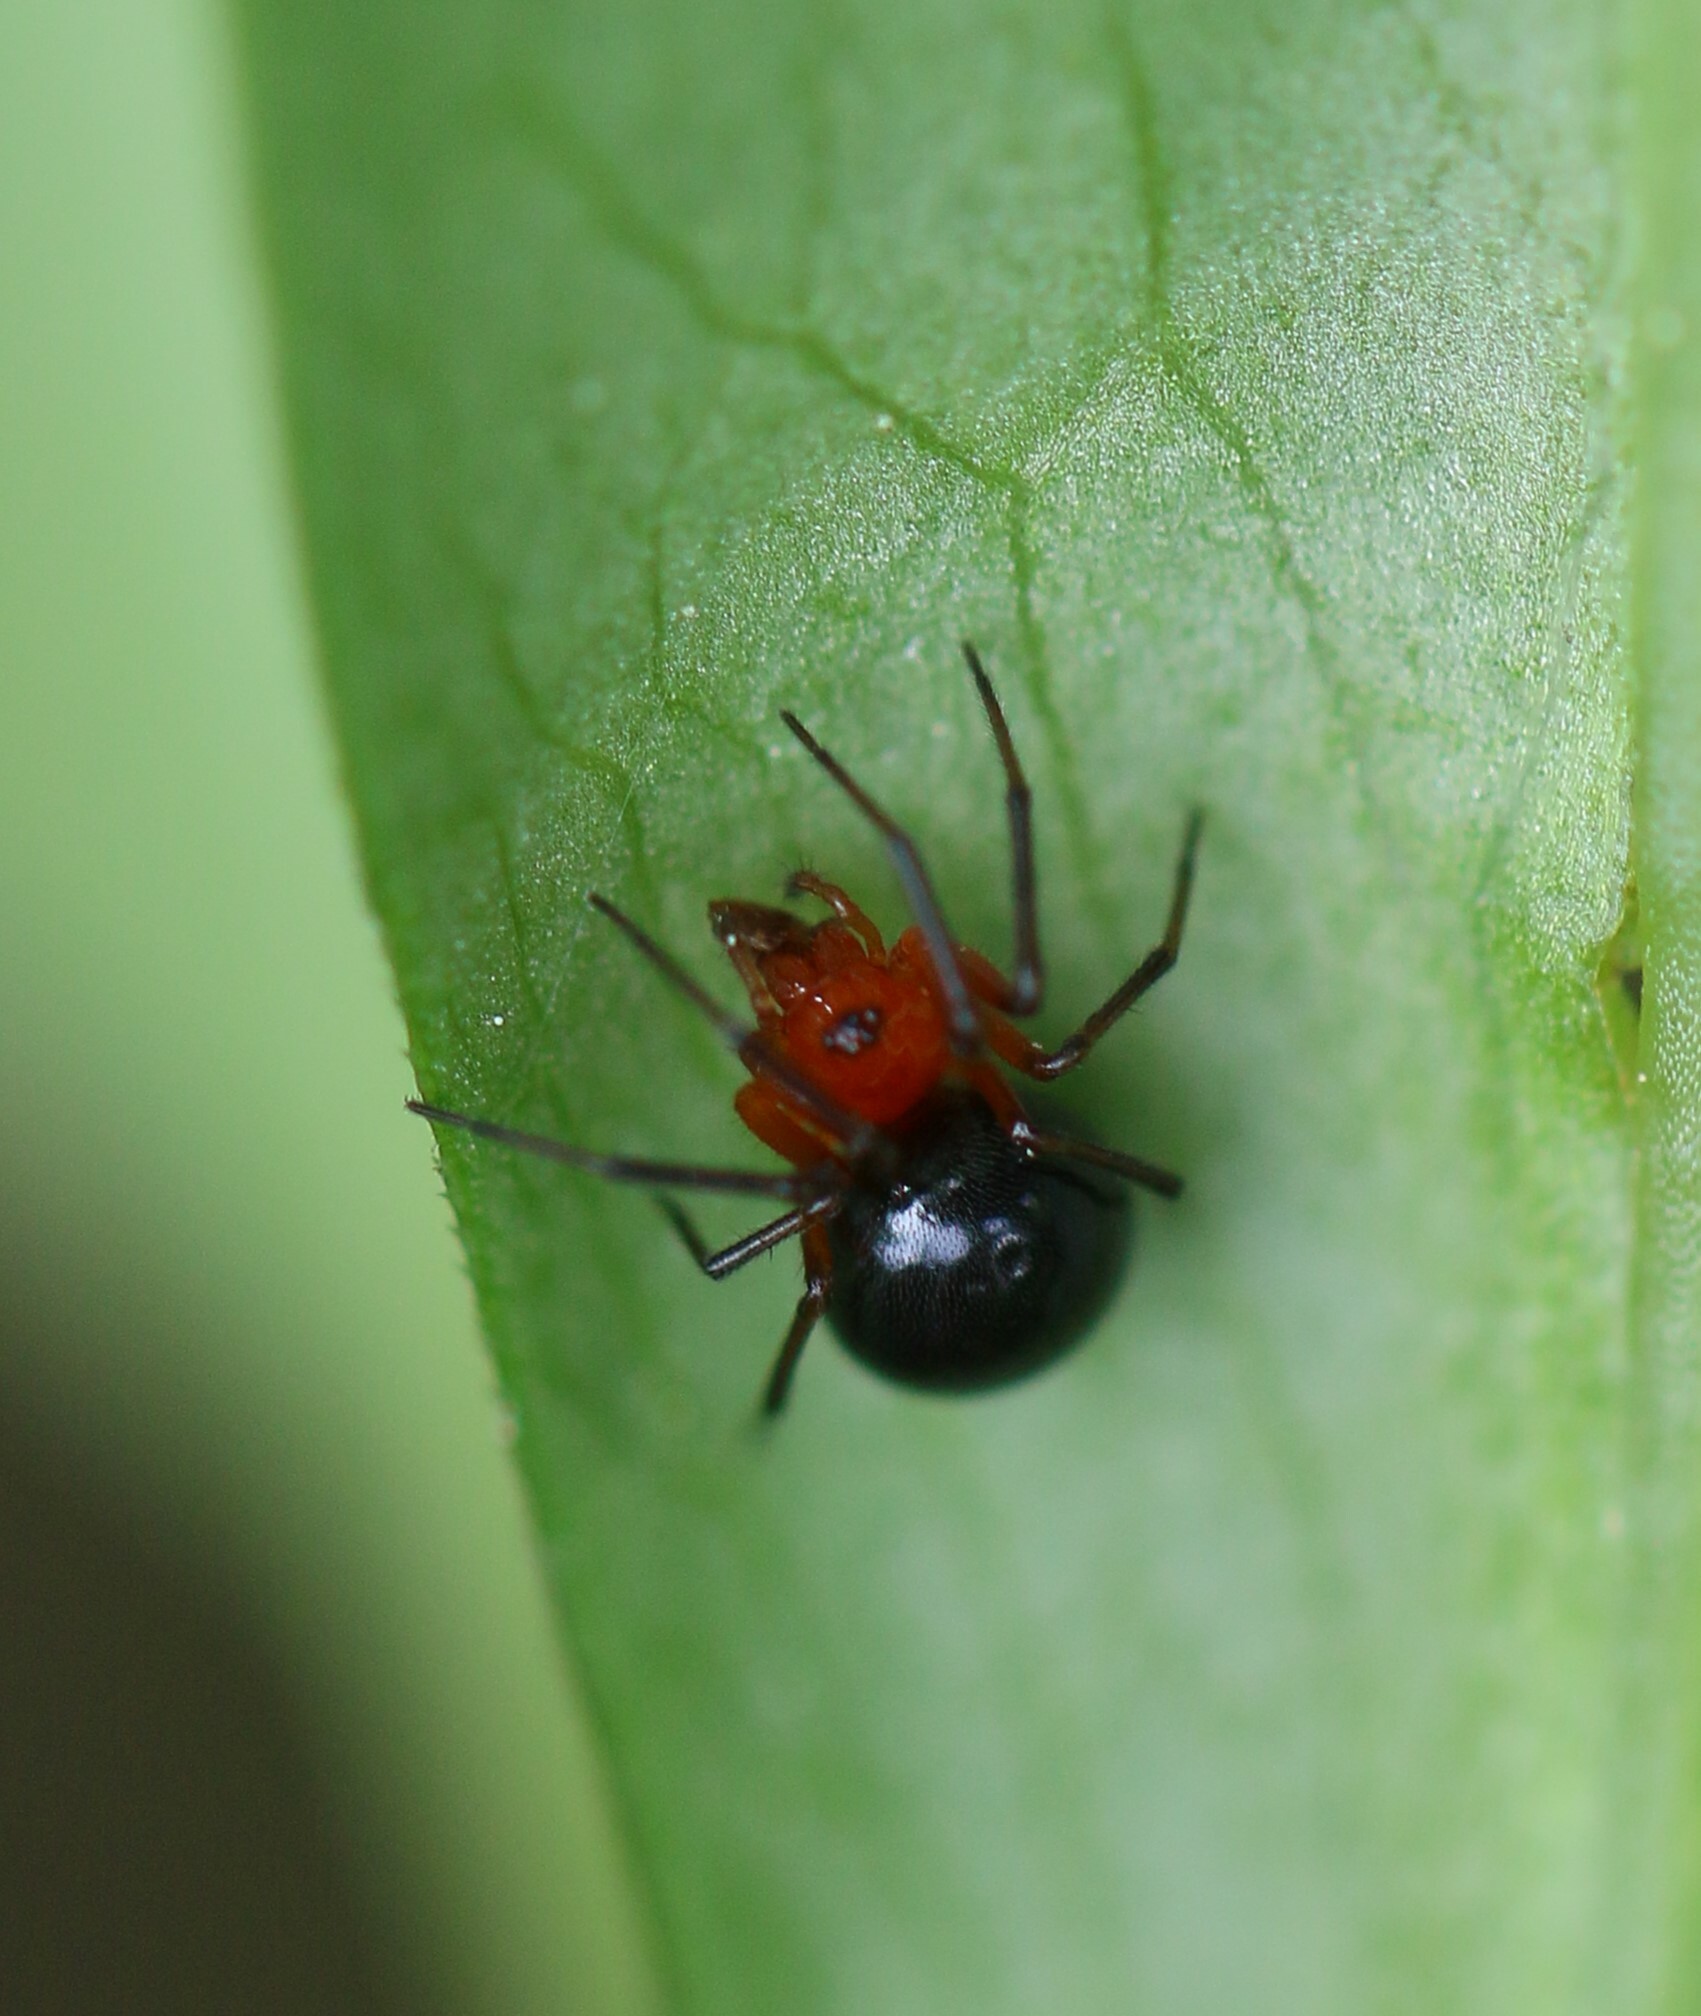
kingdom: Animalia
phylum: Arthropoda
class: Arachnida
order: Araneae
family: Linyphiidae
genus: Hypselistes
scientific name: Hypselistes florens
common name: Peatland sheetweb weaver
